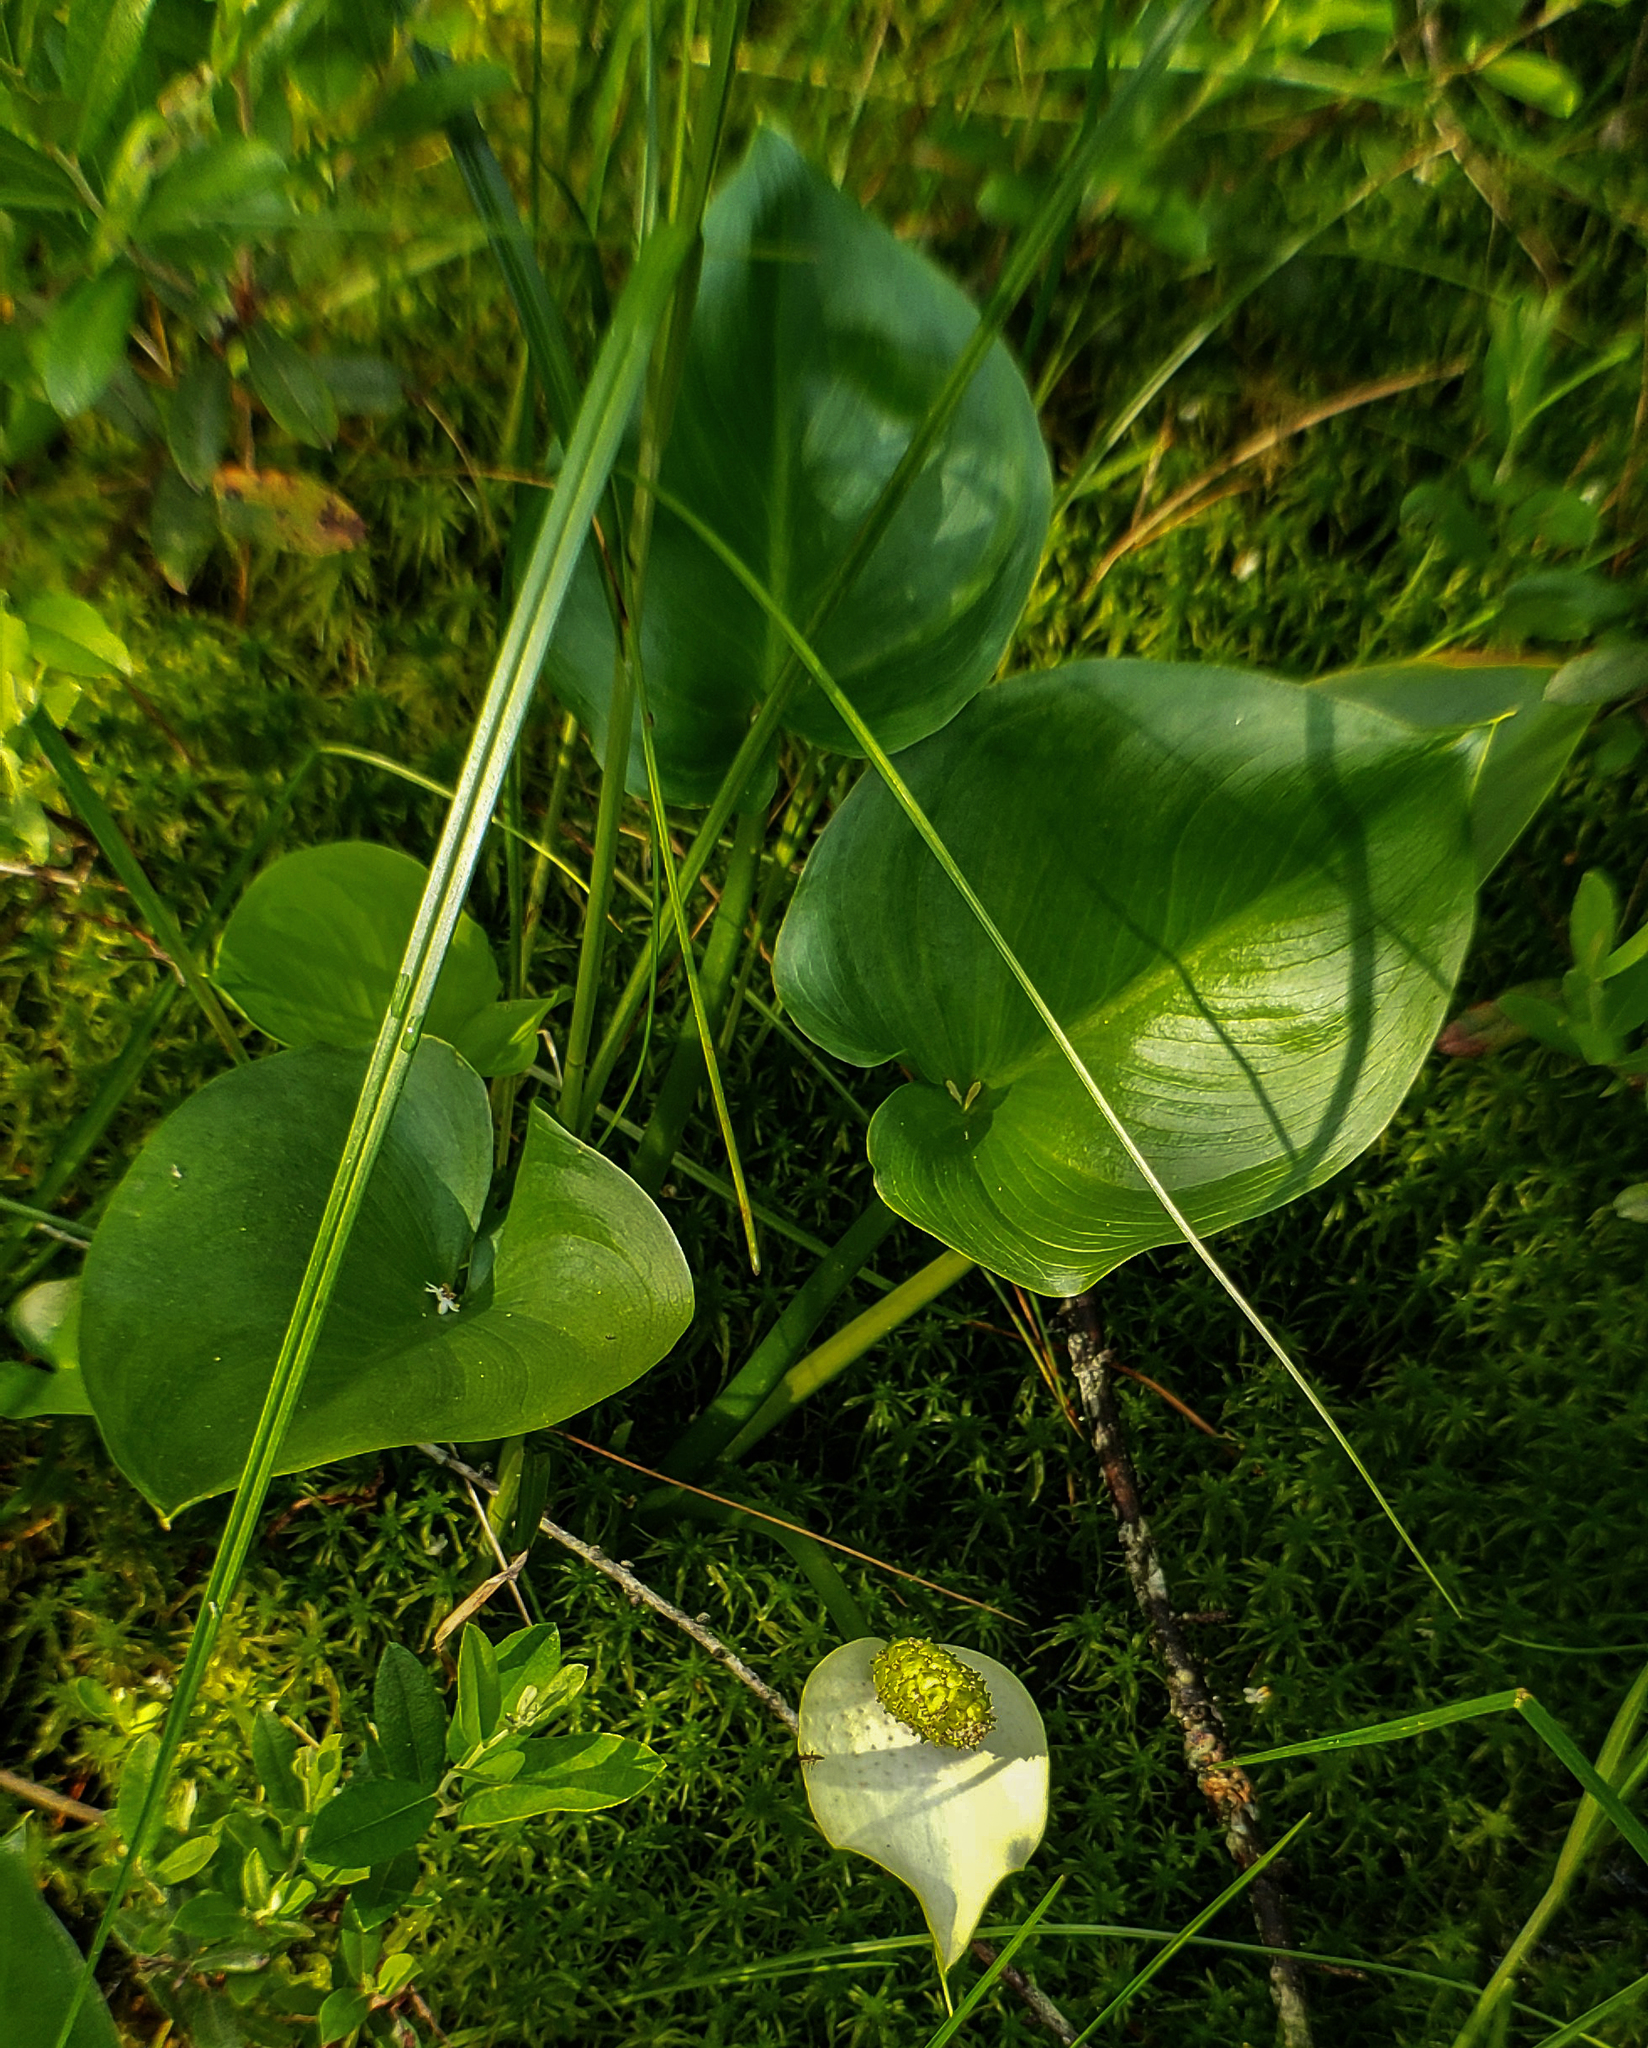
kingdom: Plantae
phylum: Tracheophyta
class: Liliopsida
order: Alismatales
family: Araceae
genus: Calla
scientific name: Calla palustris
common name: Bog arum
